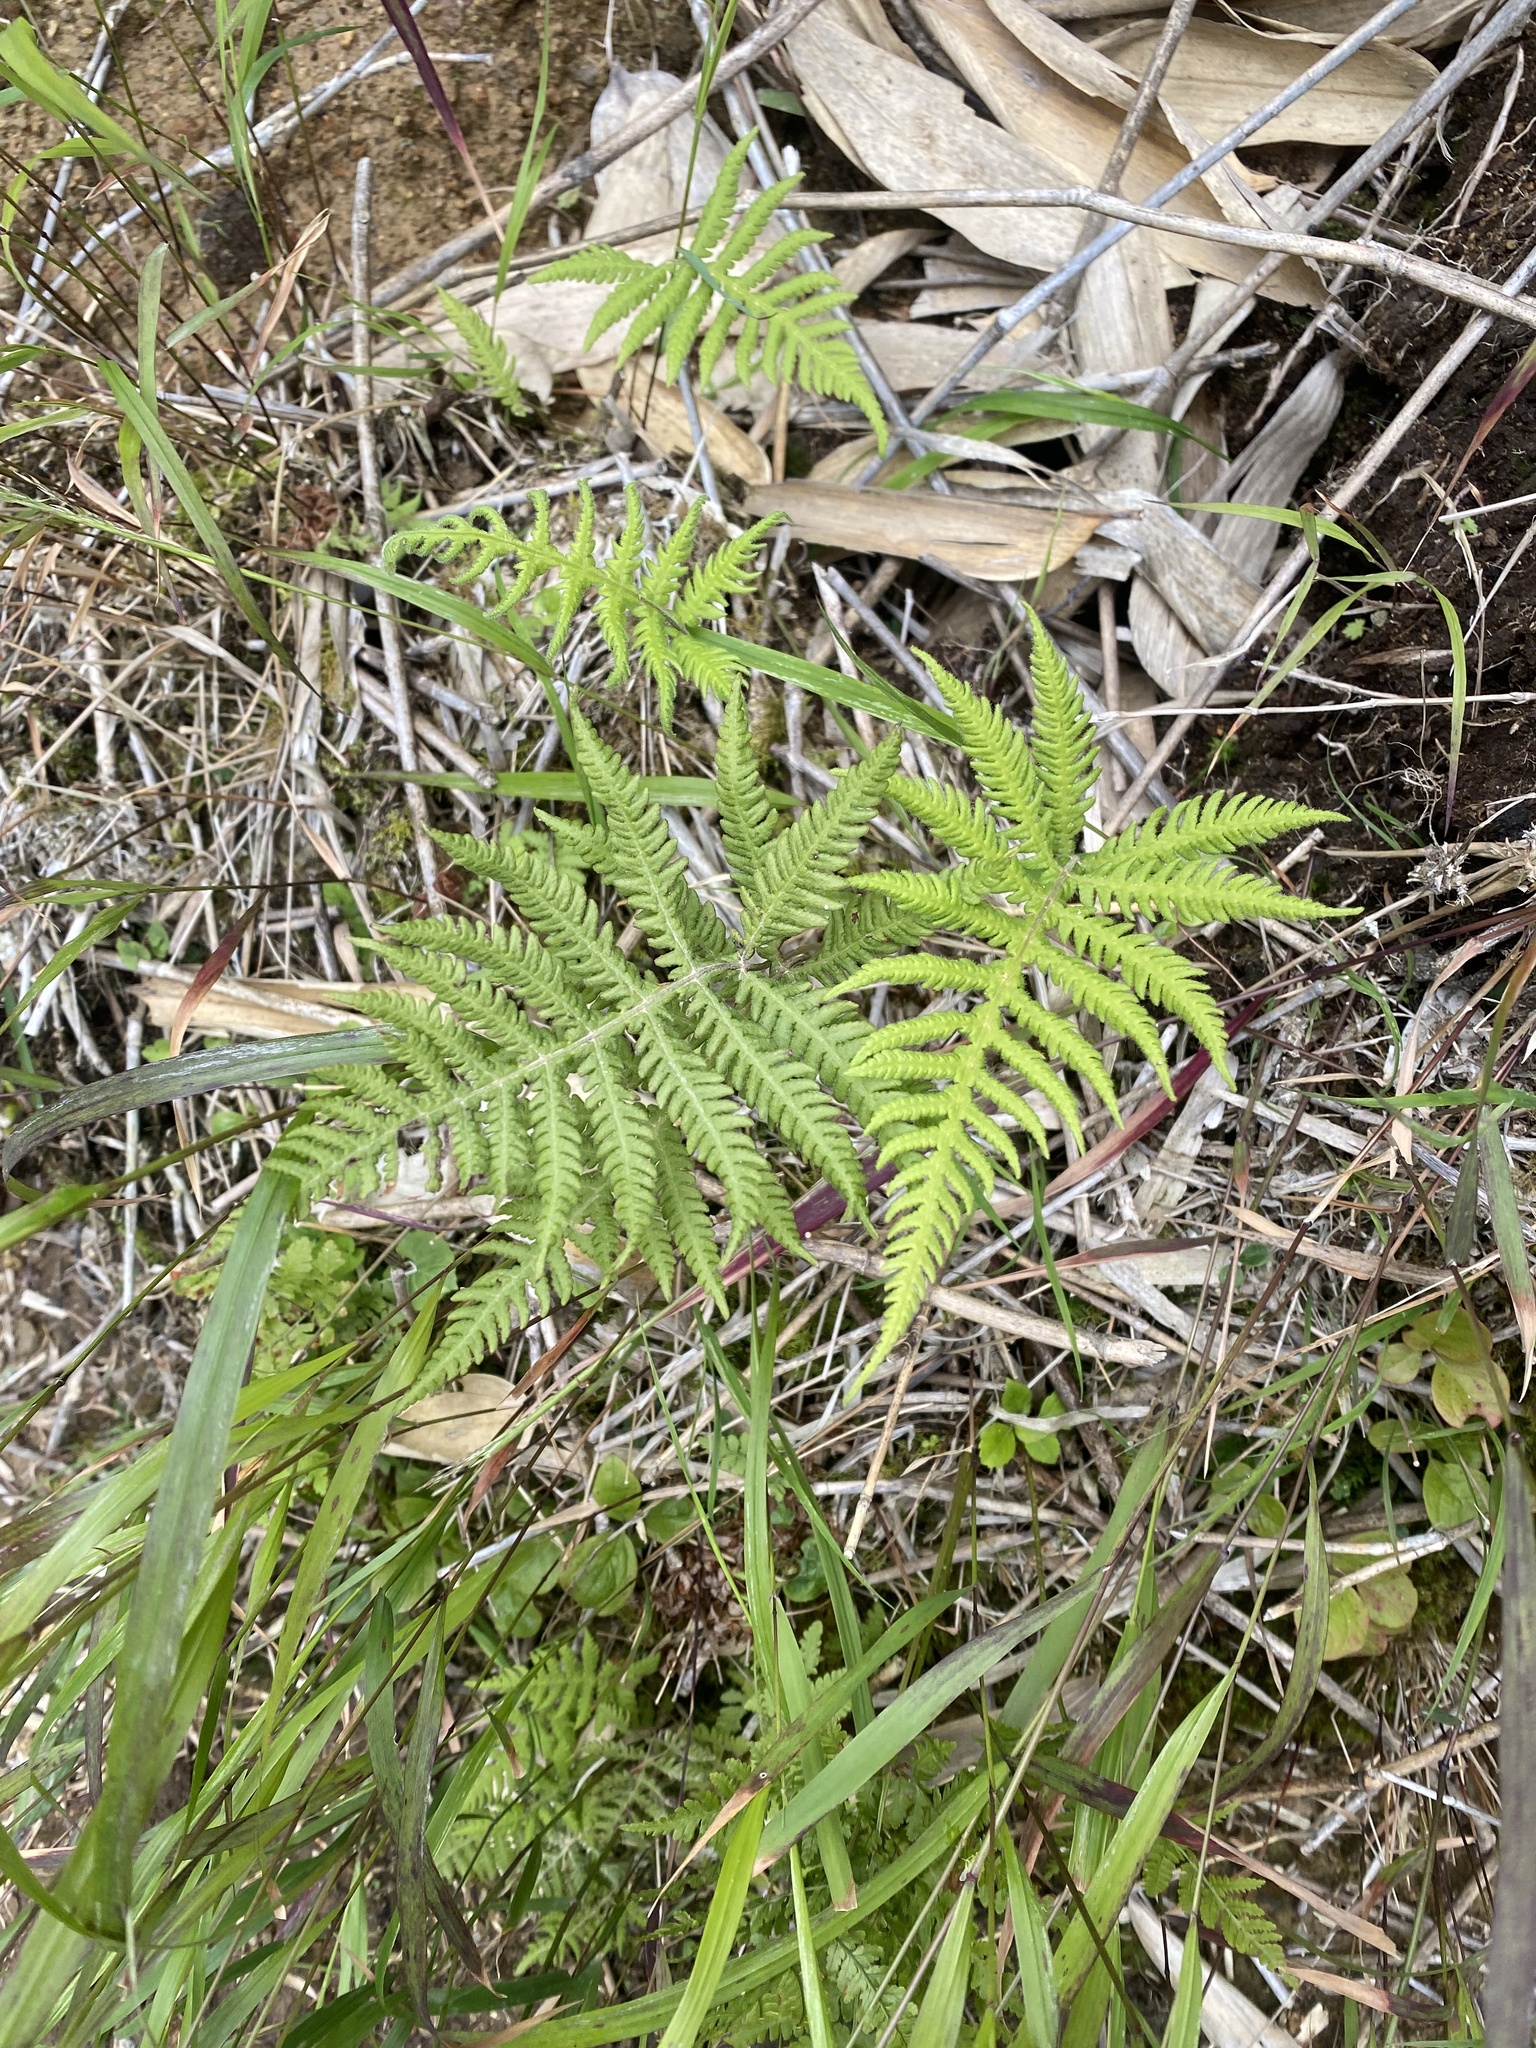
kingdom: Plantae
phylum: Tracheophyta
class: Polypodiopsida
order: Polypodiales
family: Thelypteridaceae
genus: Phegopteris
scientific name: Phegopteris connectilis
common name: Beech fern
